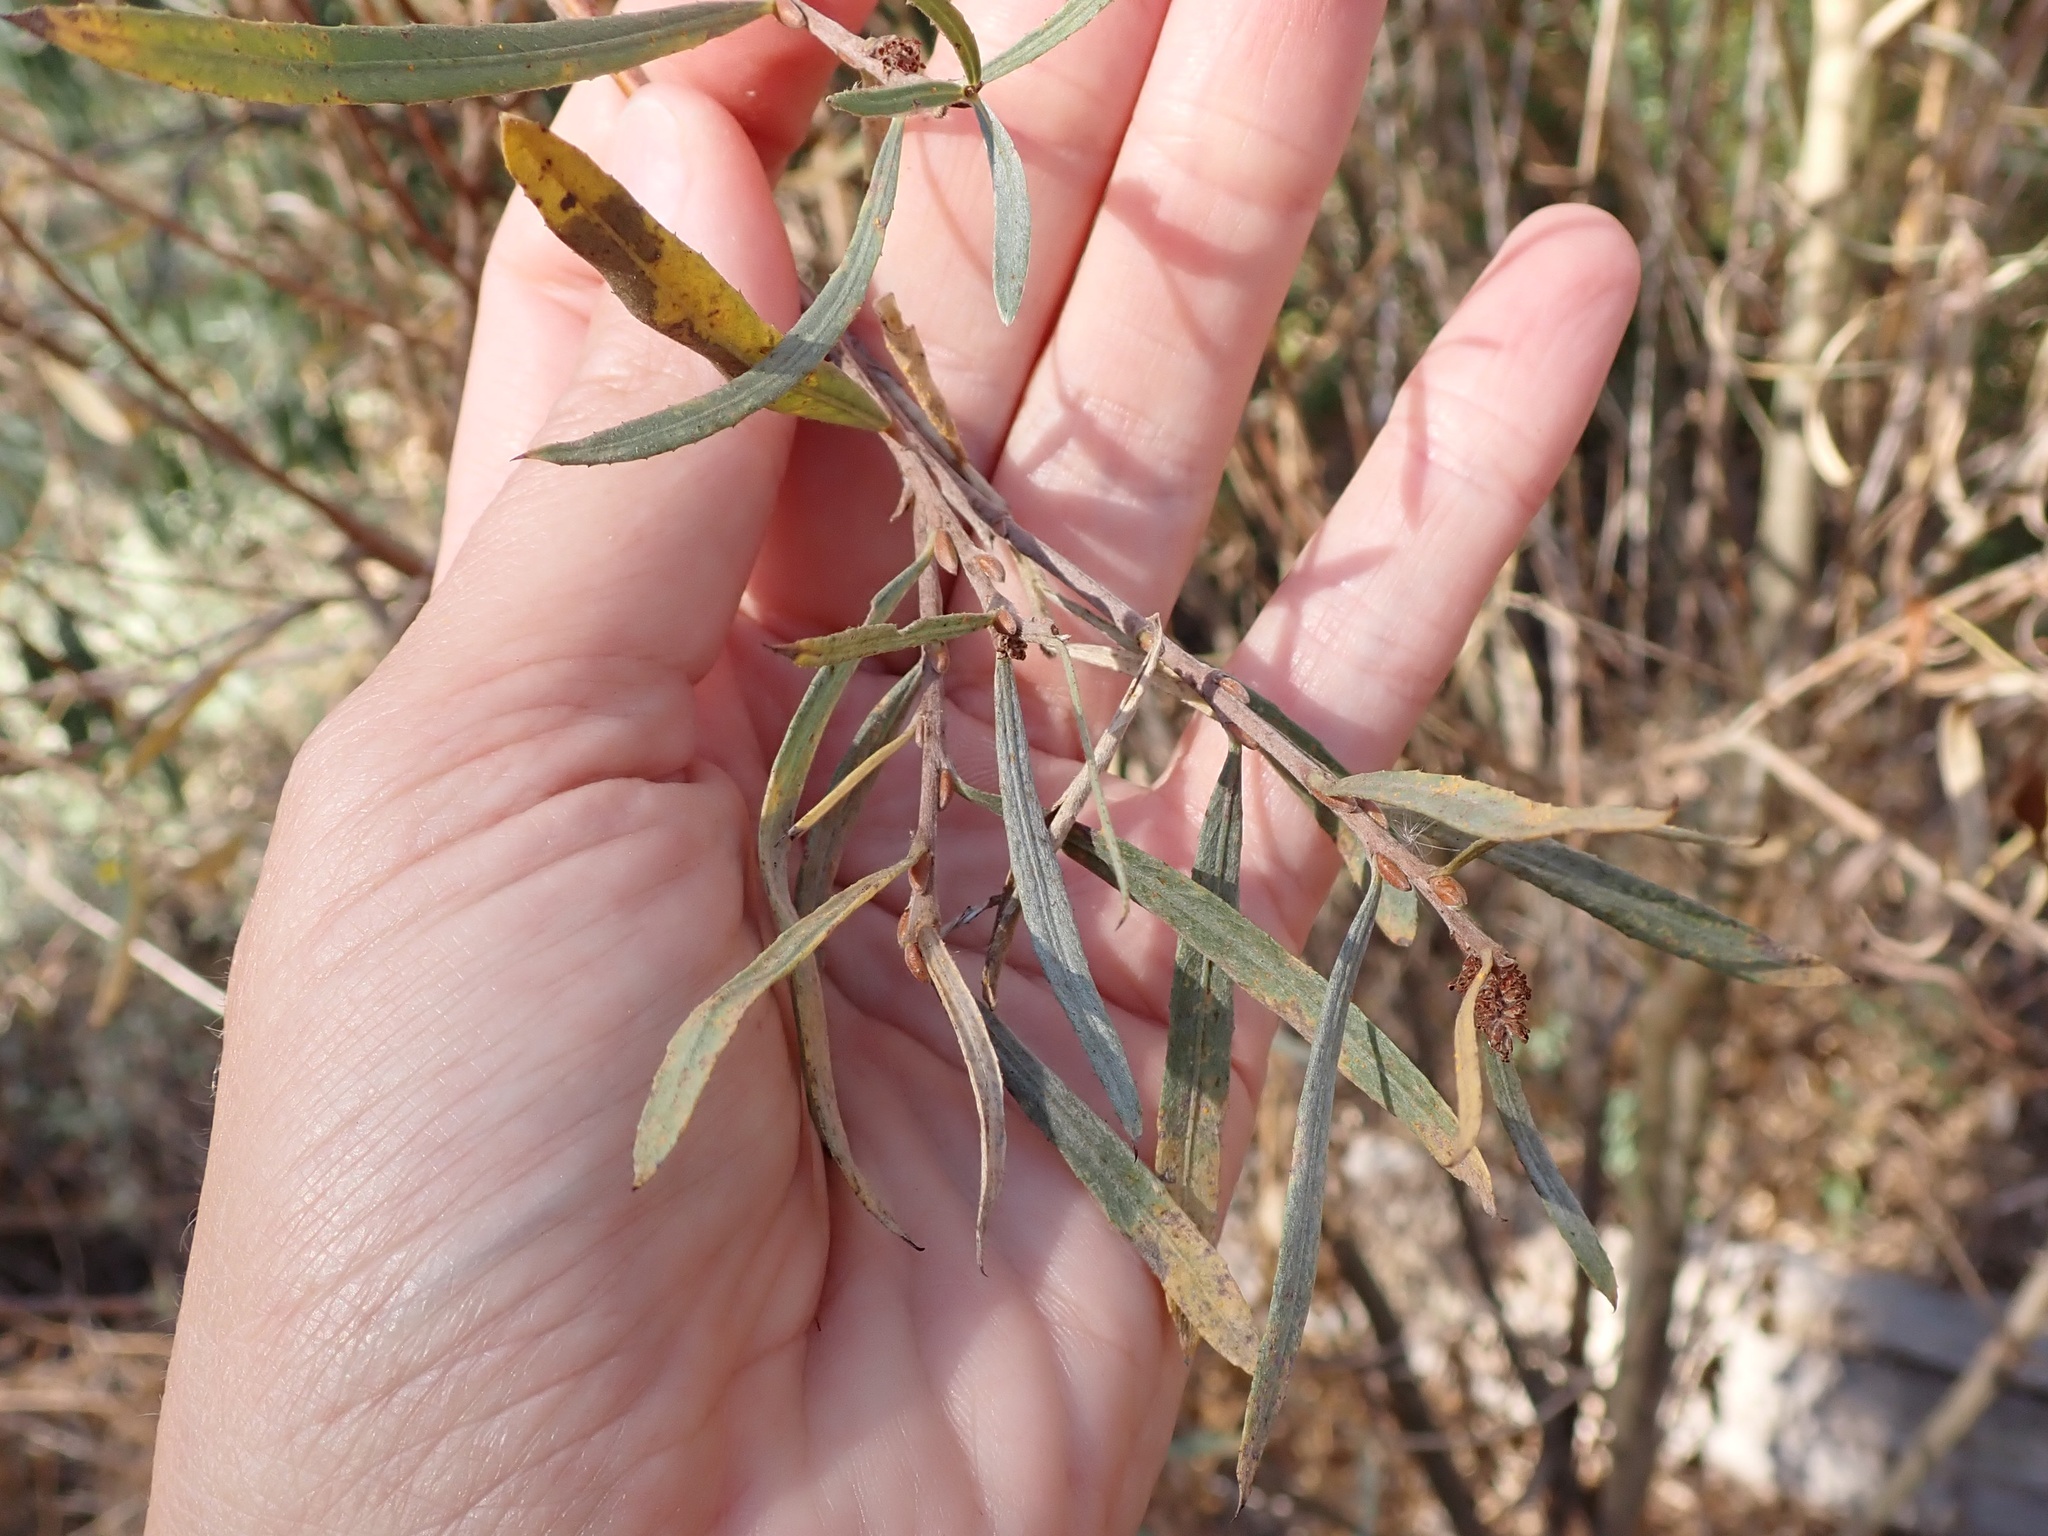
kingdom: Plantae
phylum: Tracheophyta
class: Magnoliopsida
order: Malpighiales
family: Salicaceae
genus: Salix
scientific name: Salix exigua
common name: Coyote willow
